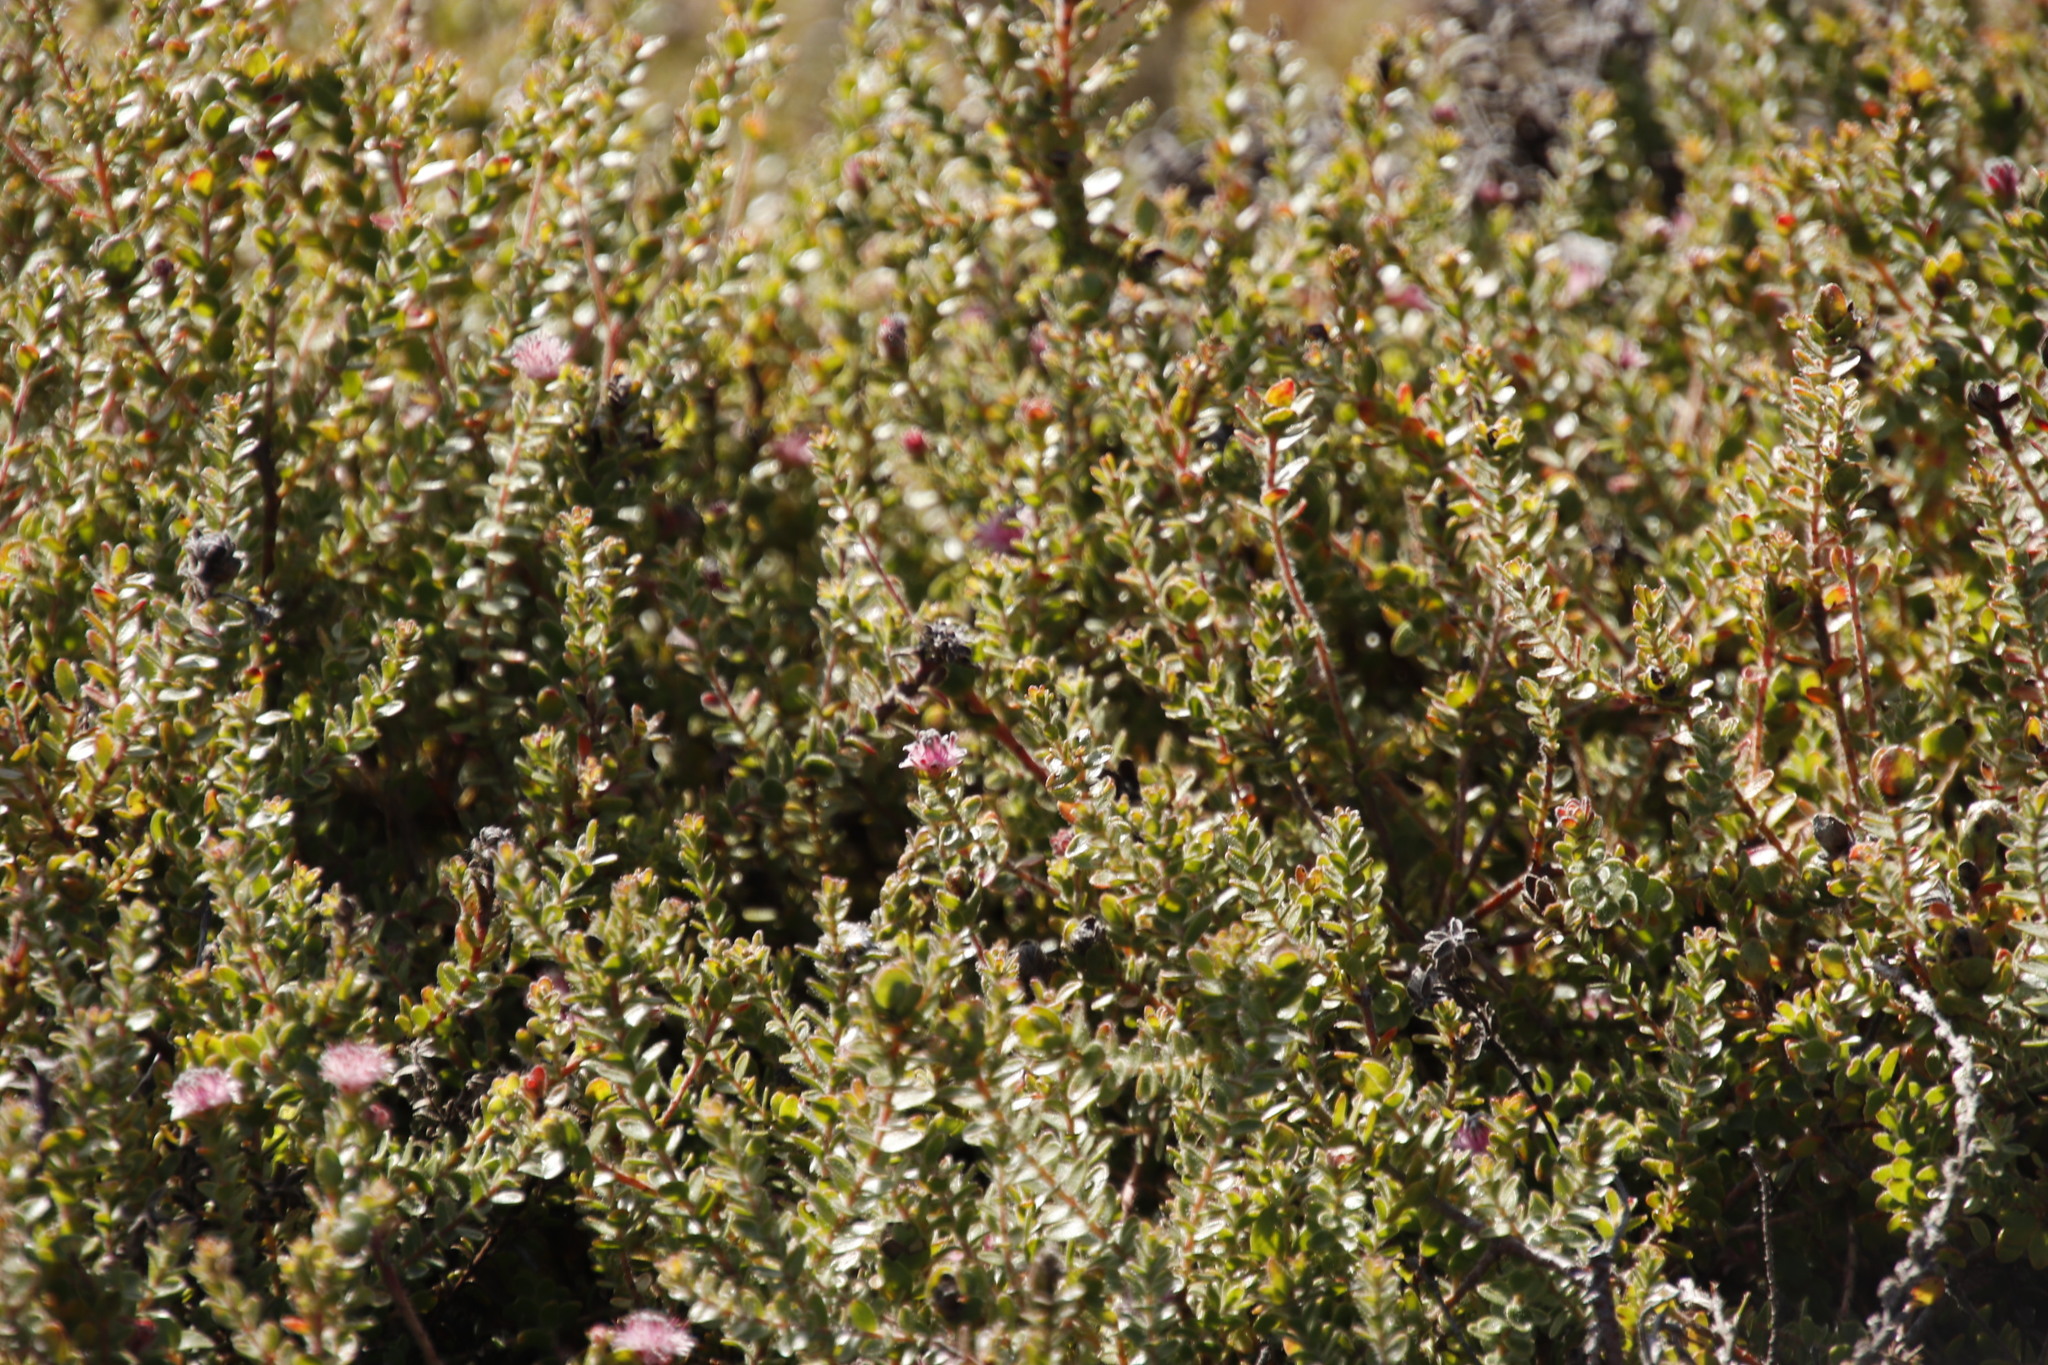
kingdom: Plantae
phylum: Tracheophyta
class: Magnoliopsida
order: Proteales
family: Proteaceae
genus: Diastella
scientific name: Diastella divaricata
